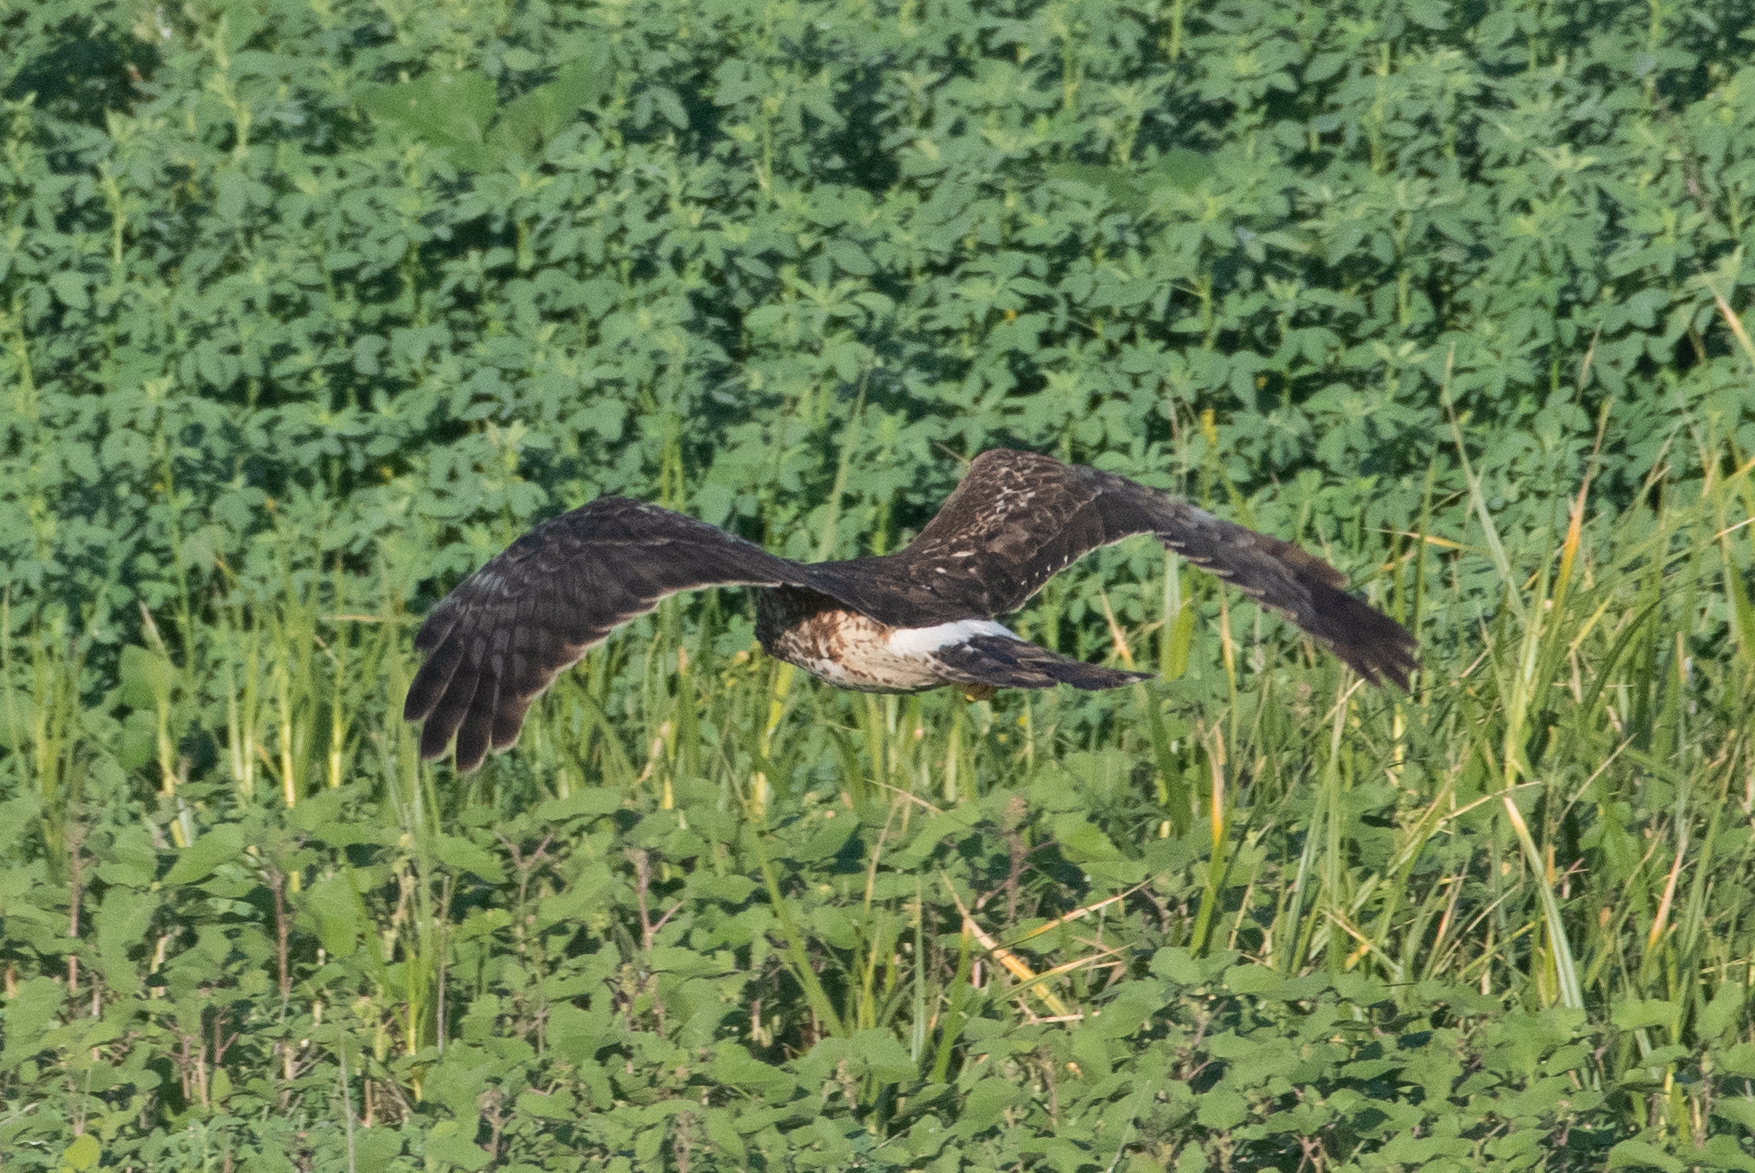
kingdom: Animalia
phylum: Chordata
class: Aves
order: Accipitriformes
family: Accipitridae
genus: Circus
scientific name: Circus cyaneus
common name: Hen harrier
